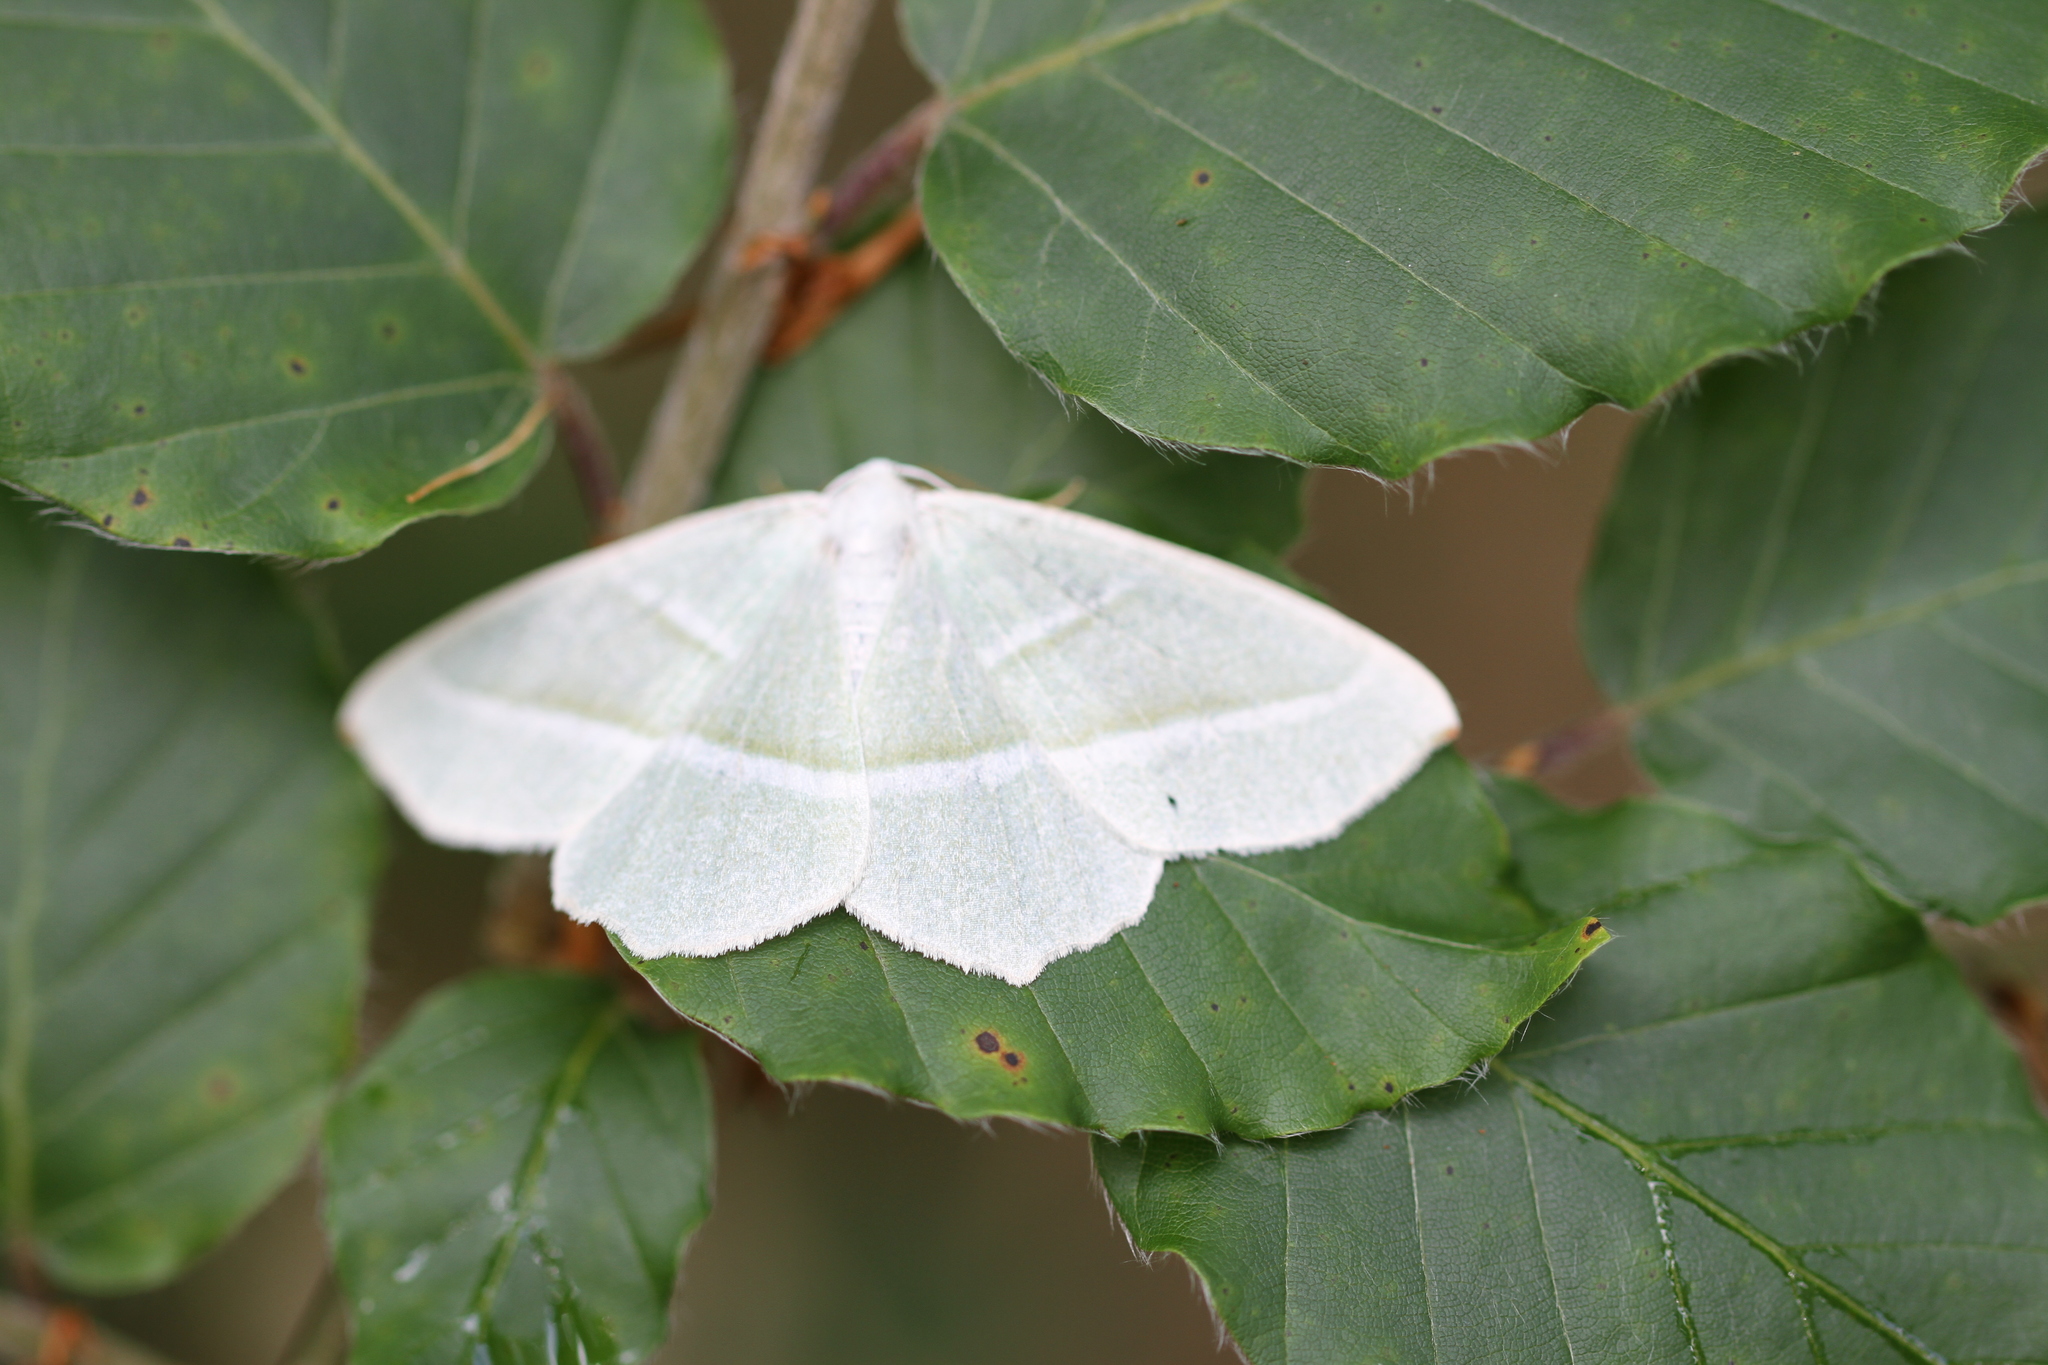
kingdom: Animalia
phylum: Arthropoda
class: Insecta
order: Lepidoptera
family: Geometridae
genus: Campaea
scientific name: Campaea margaritaria
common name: Light emerald
